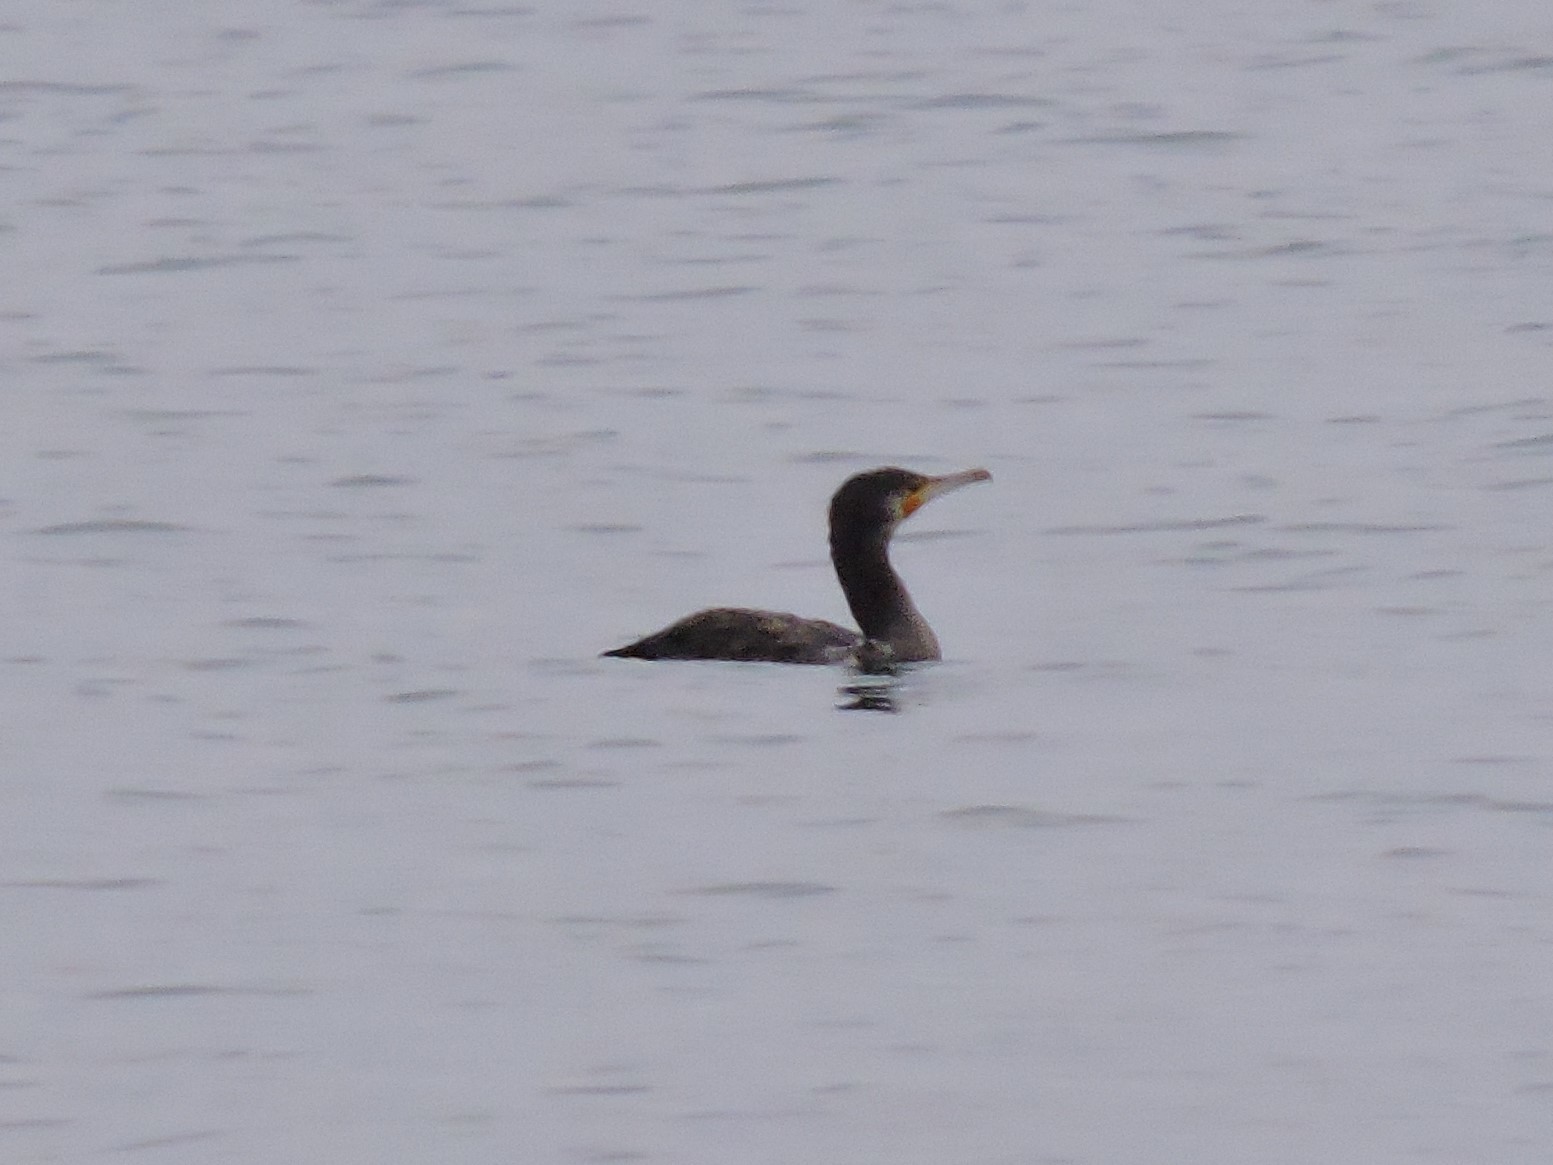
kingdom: Animalia
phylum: Chordata
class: Aves
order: Suliformes
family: Phalacrocoracidae
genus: Phalacrocorax
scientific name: Phalacrocorax carbo
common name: Great cormorant
